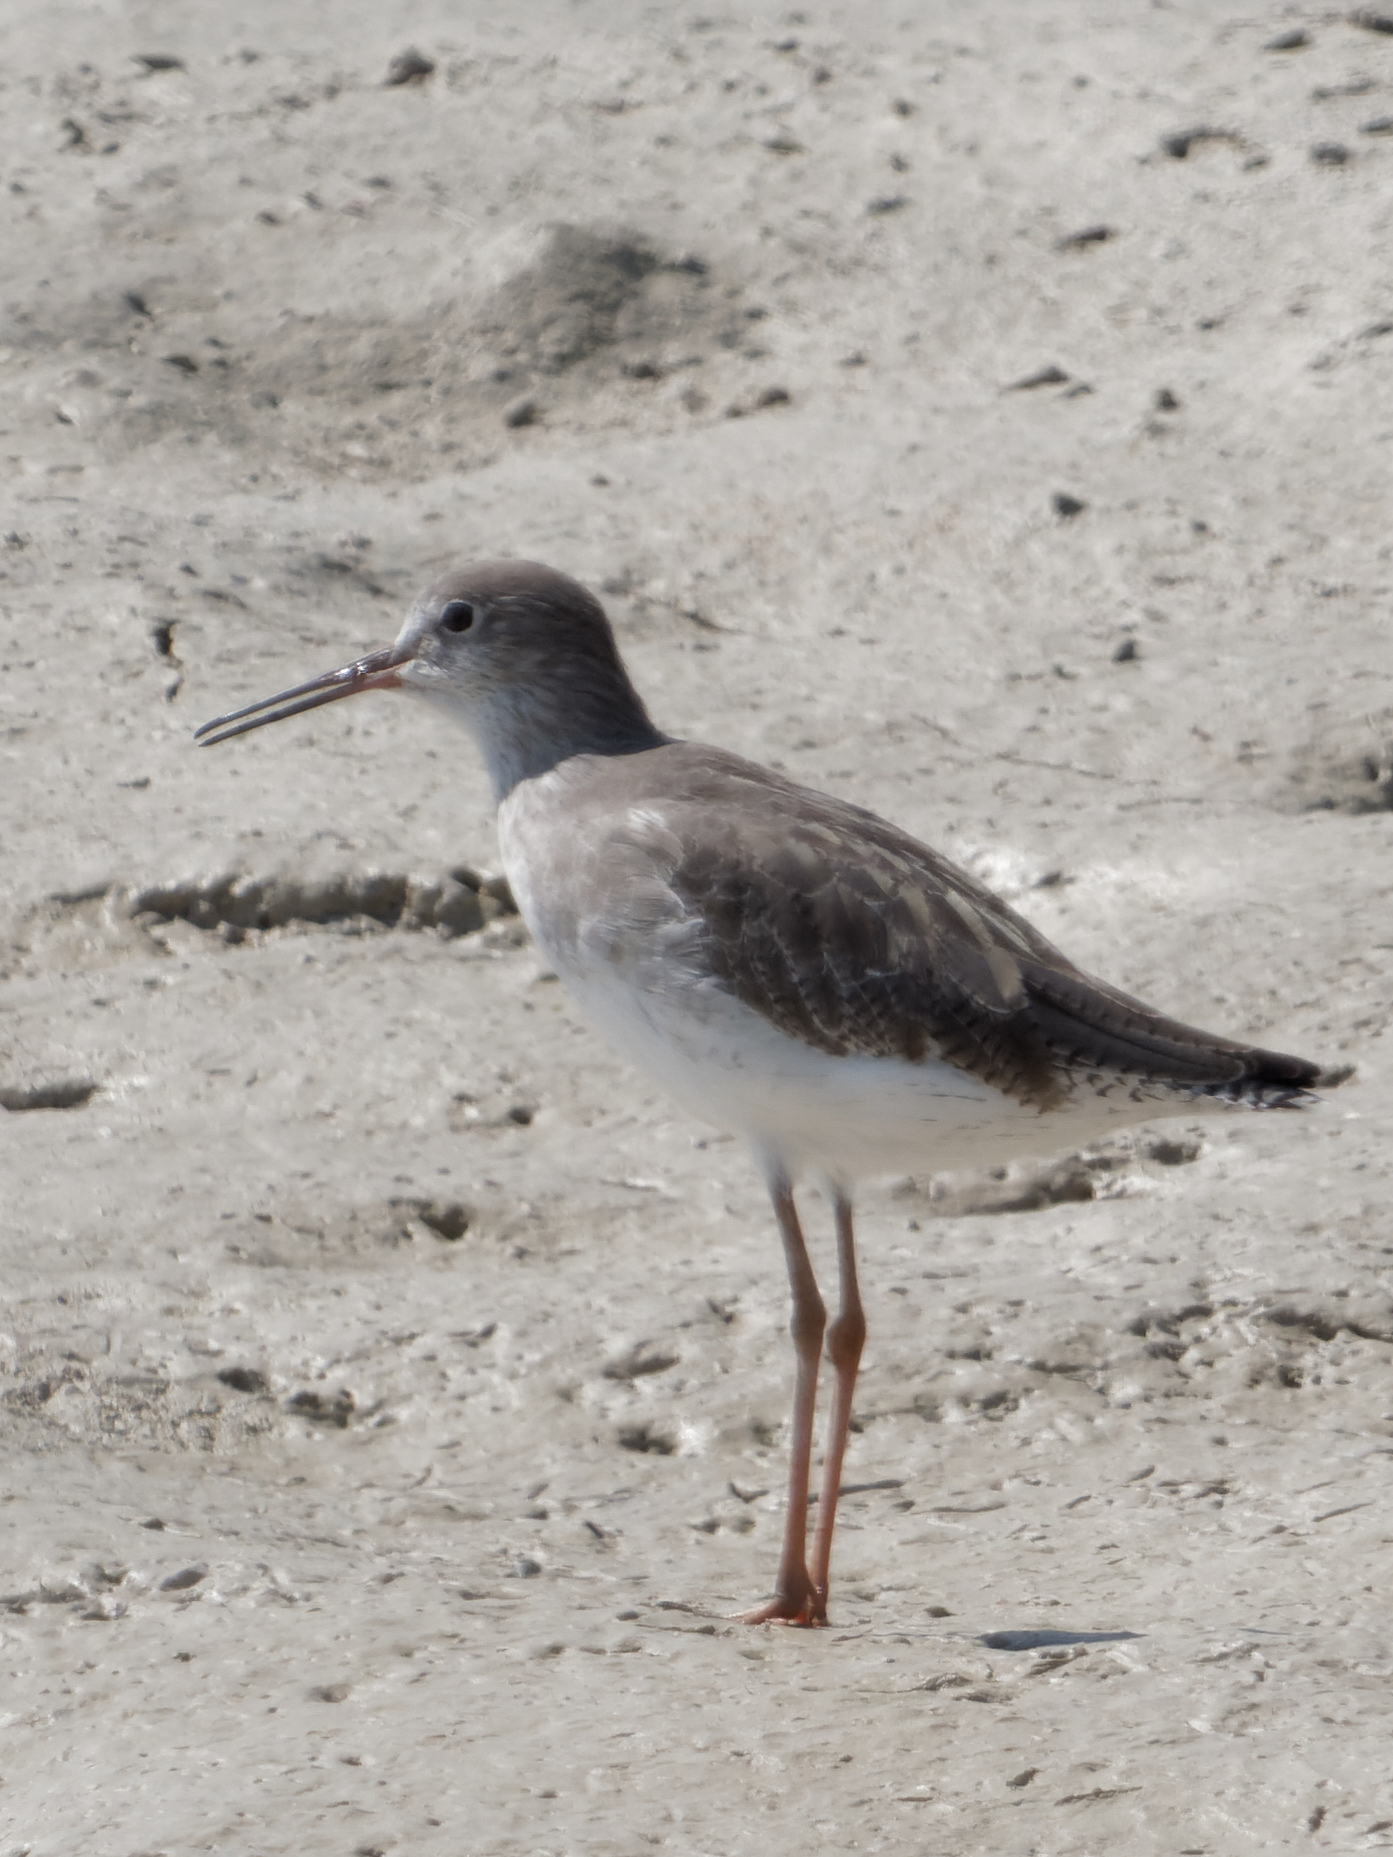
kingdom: Animalia
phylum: Chordata
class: Aves
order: Charadriiformes
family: Scolopacidae
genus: Tringa
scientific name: Tringa totanus
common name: Common redshank
